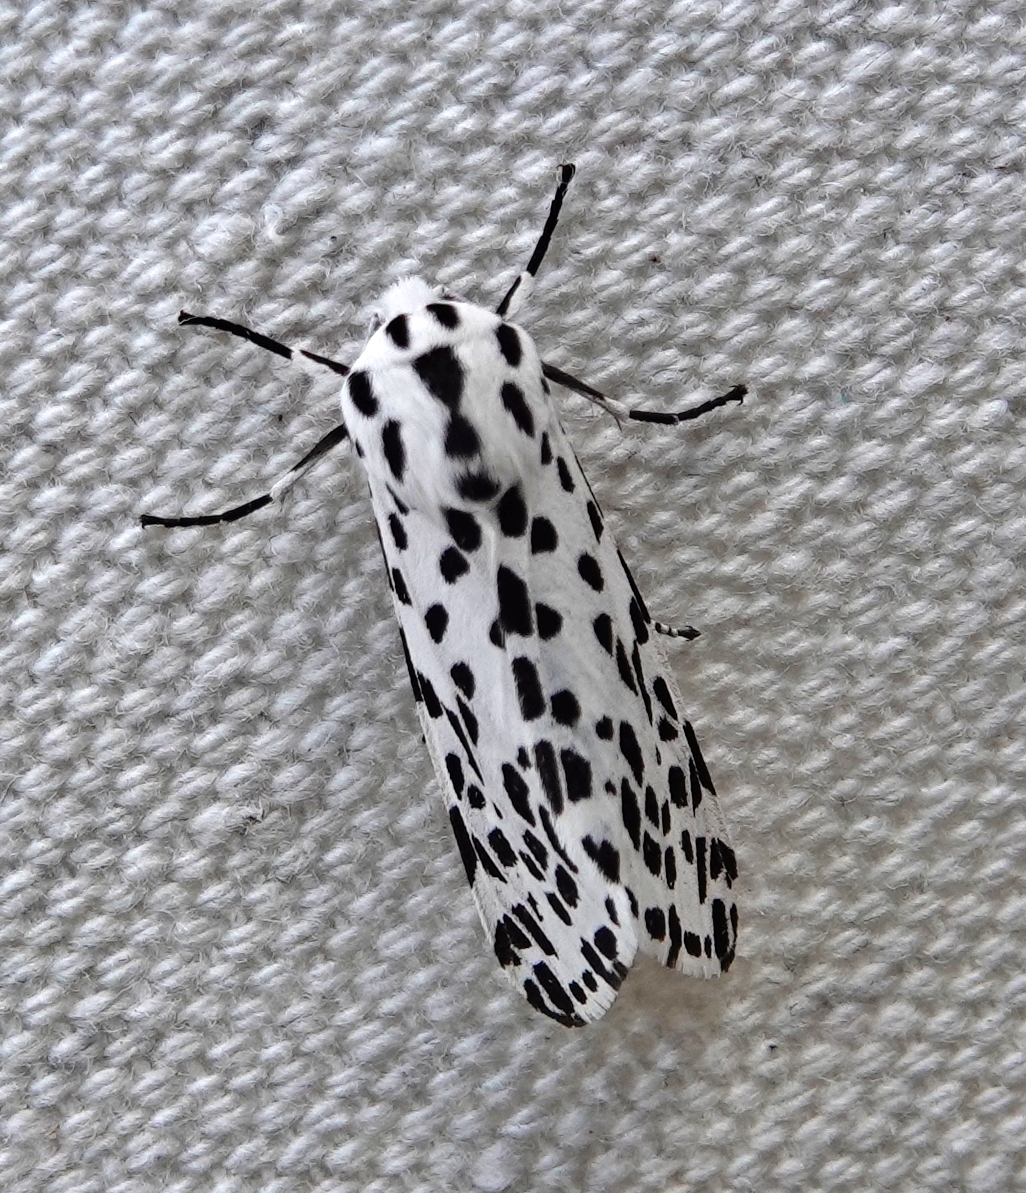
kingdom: Animalia
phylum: Arthropoda
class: Insecta
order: Lepidoptera
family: Erebidae
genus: Hypercompe
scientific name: Hypercompe permaculata
